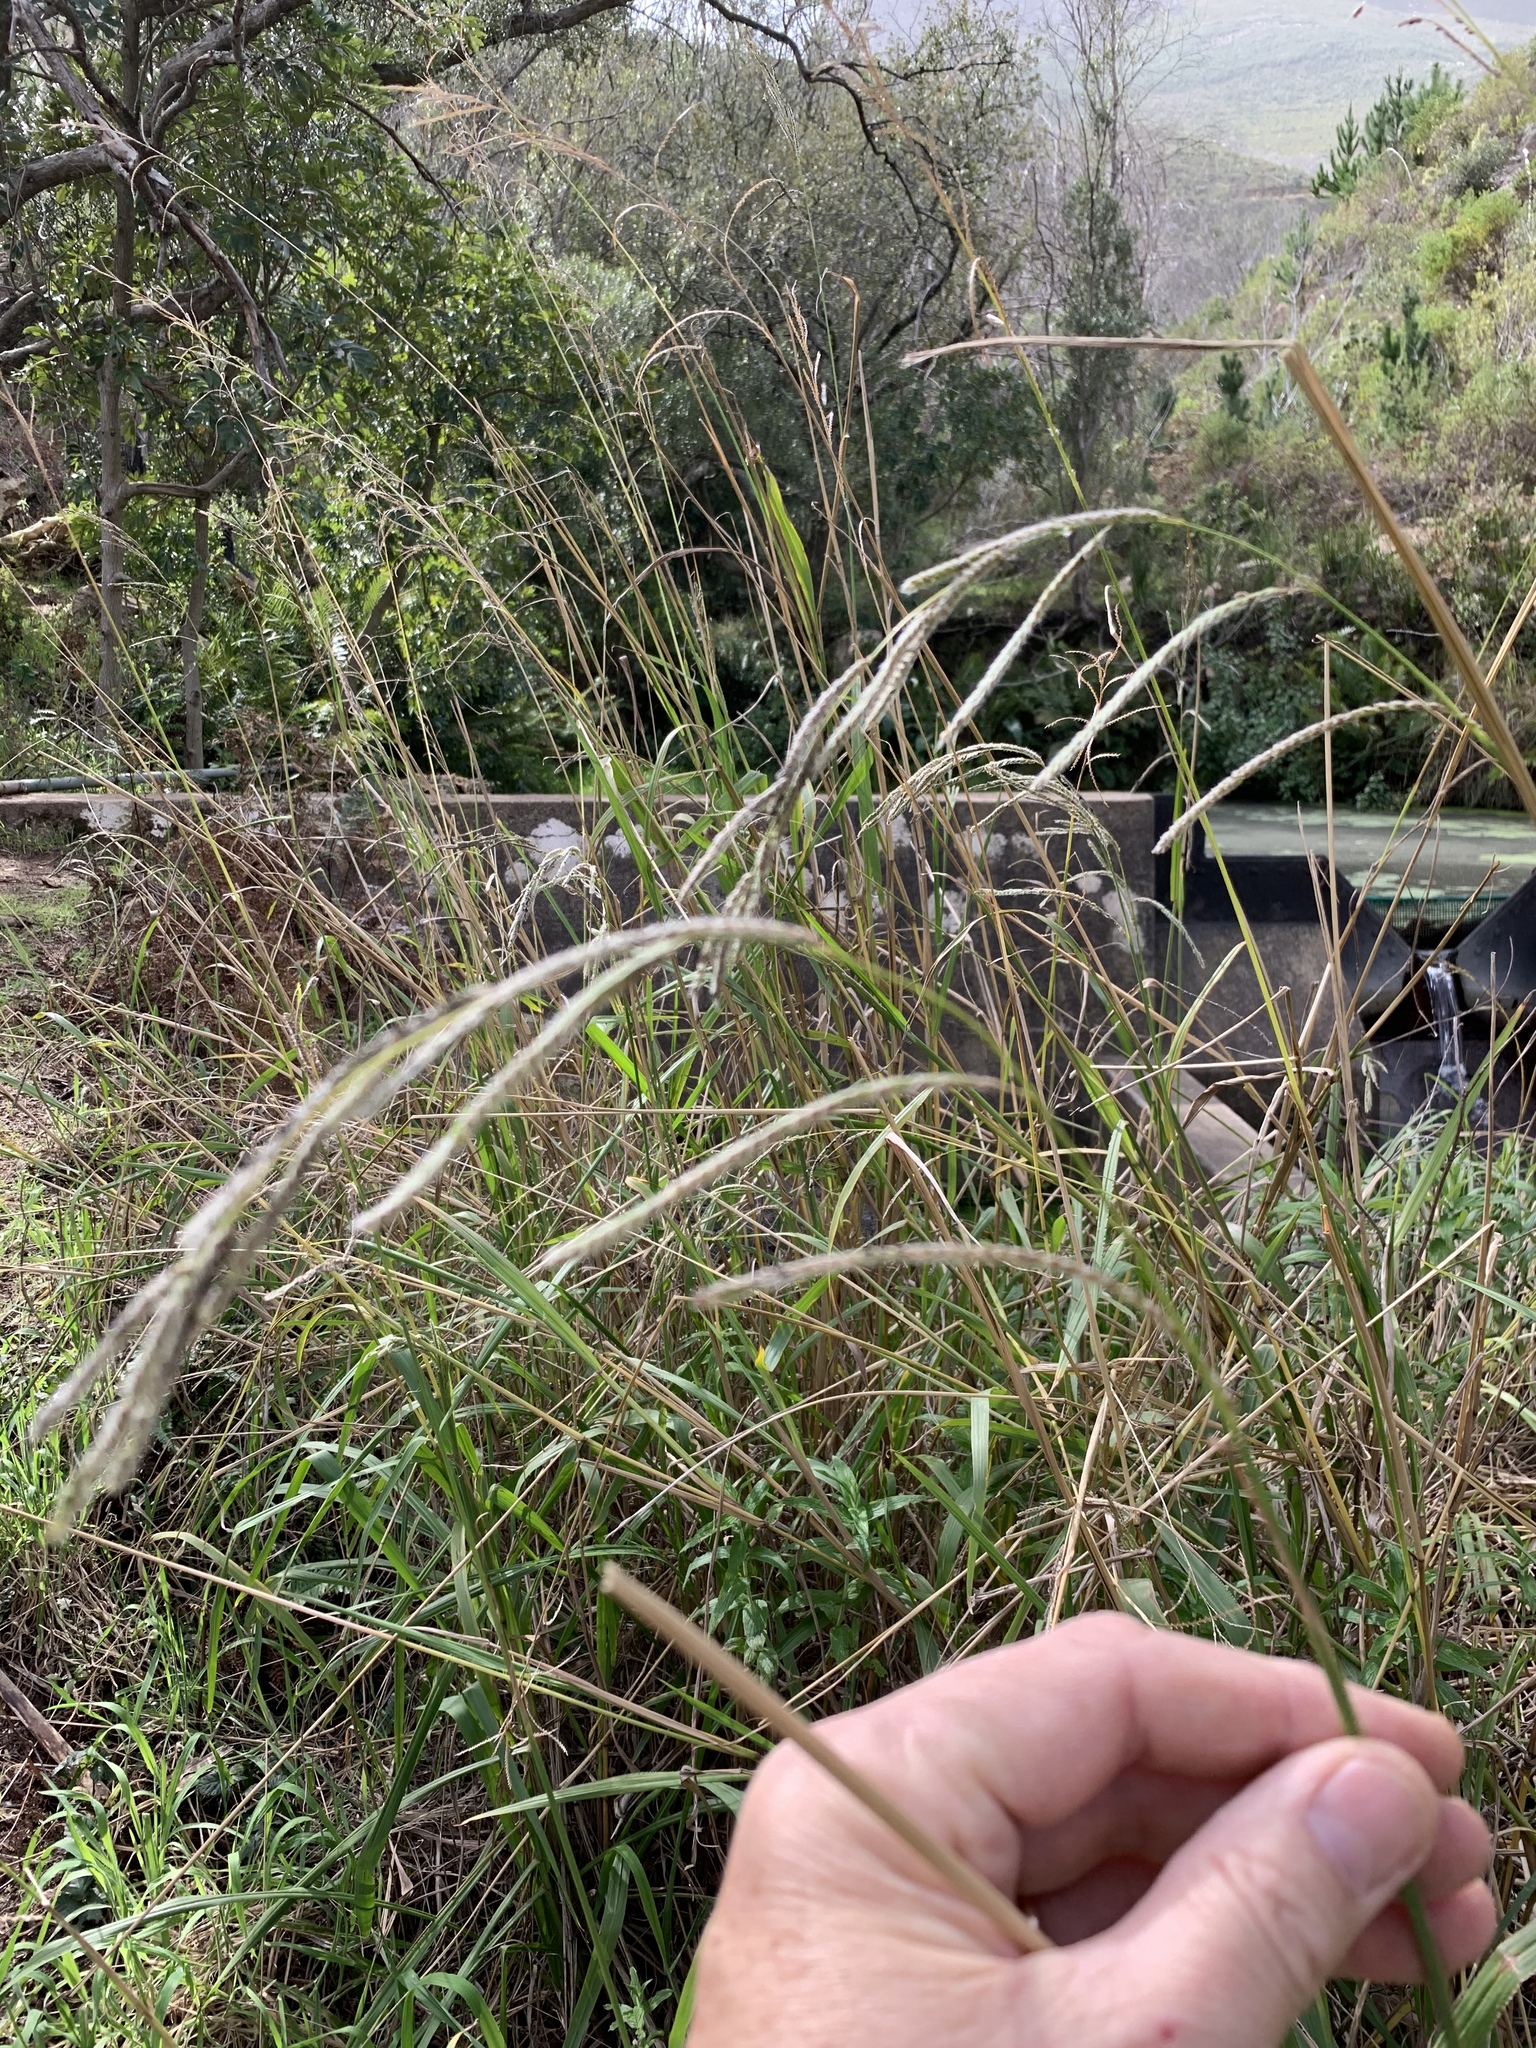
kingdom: Plantae
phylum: Tracheophyta
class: Liliopsida
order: Poales
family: Poaceae
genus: Paspalum
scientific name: Paspalum urvillei
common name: Vasey's grass
